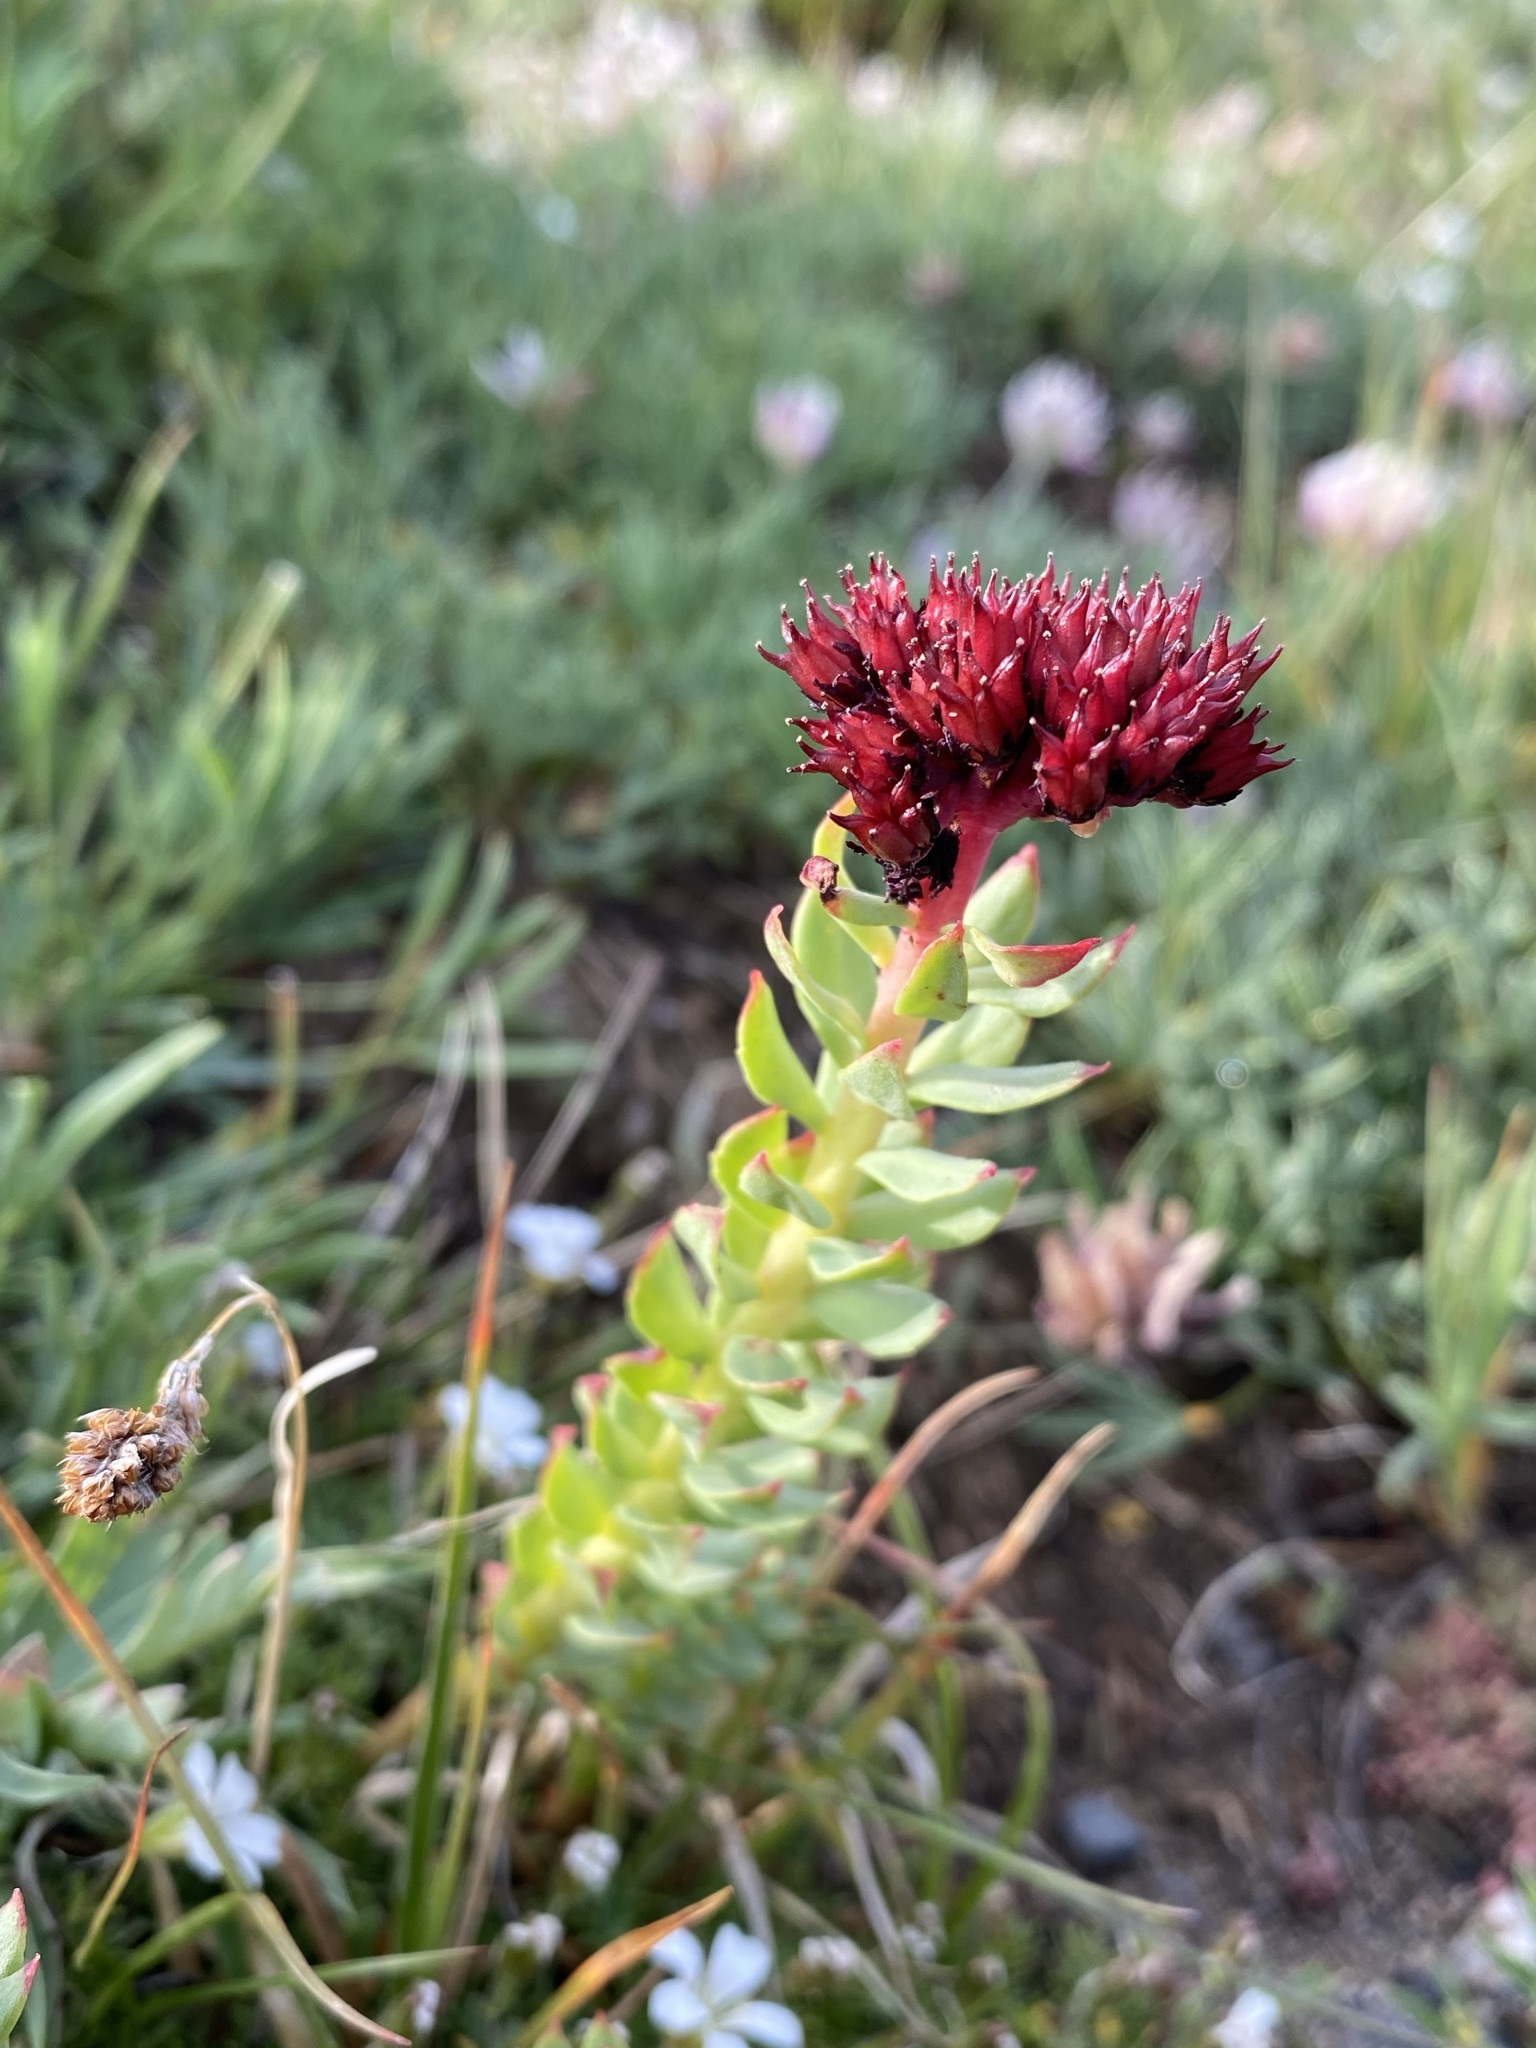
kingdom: Plantae
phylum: Tracheophyta
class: Magnoliopsida
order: Saxifragales
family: Crassulaceae
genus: Rhodiola
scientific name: Rhodiola integrifolia
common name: Western roseroot
